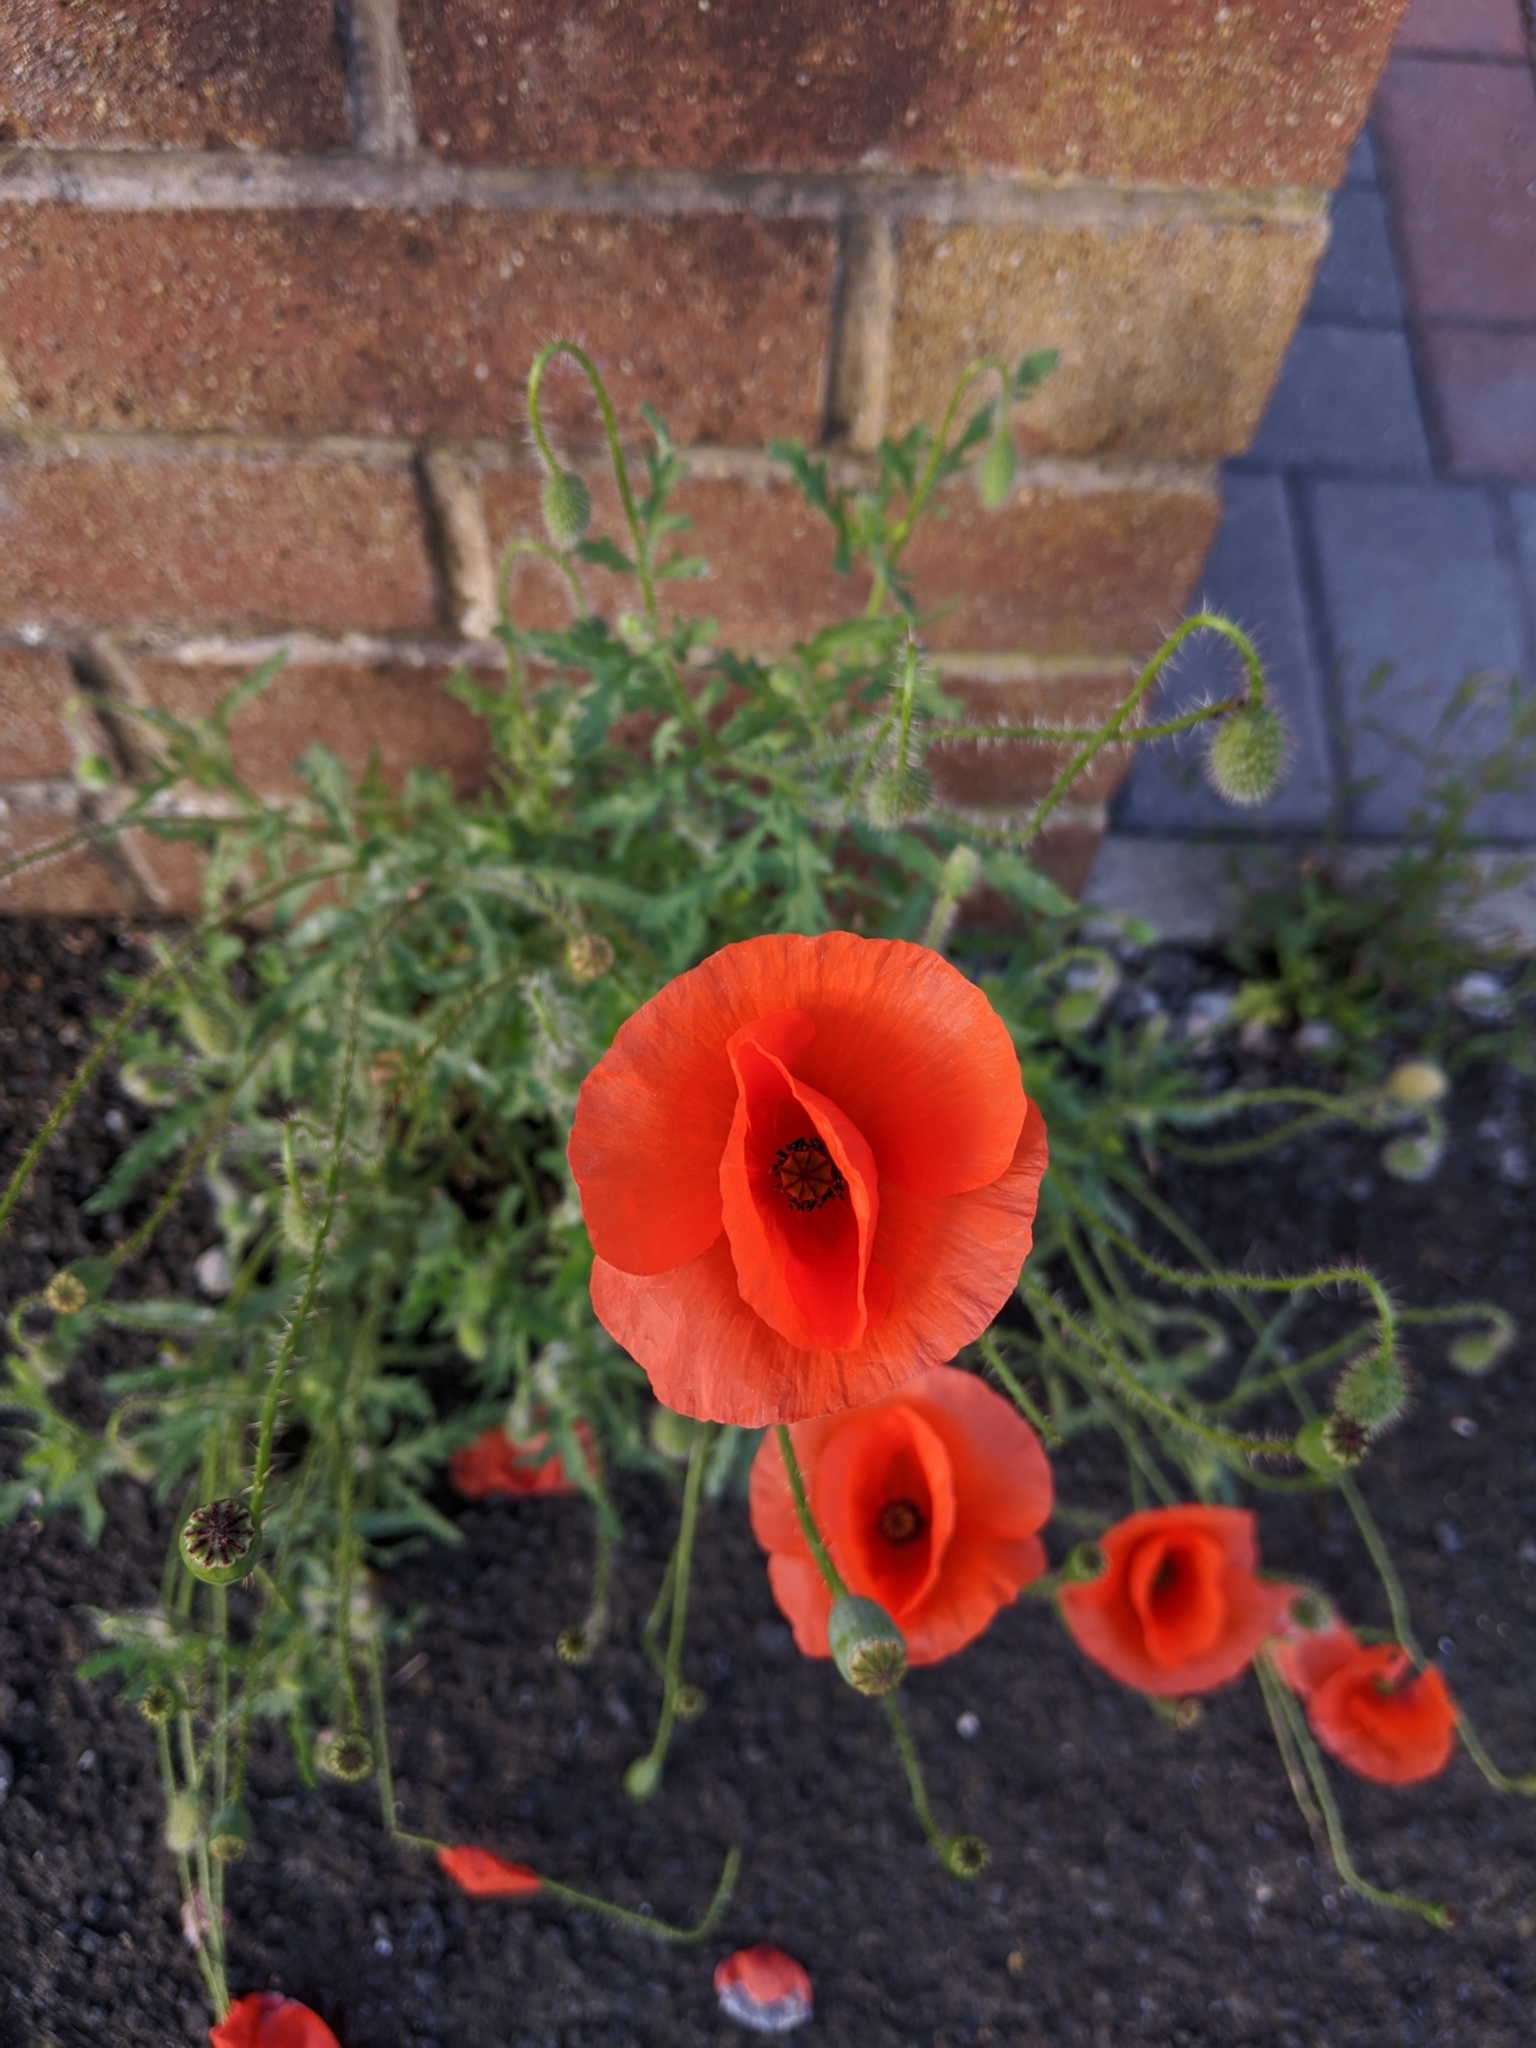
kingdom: Plantae
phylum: Tracheophyta
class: Magnoliopsida
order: Ranunculales
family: Papaveraceae
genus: Papaver
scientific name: Papaver rhoeas
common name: Corn poppy
